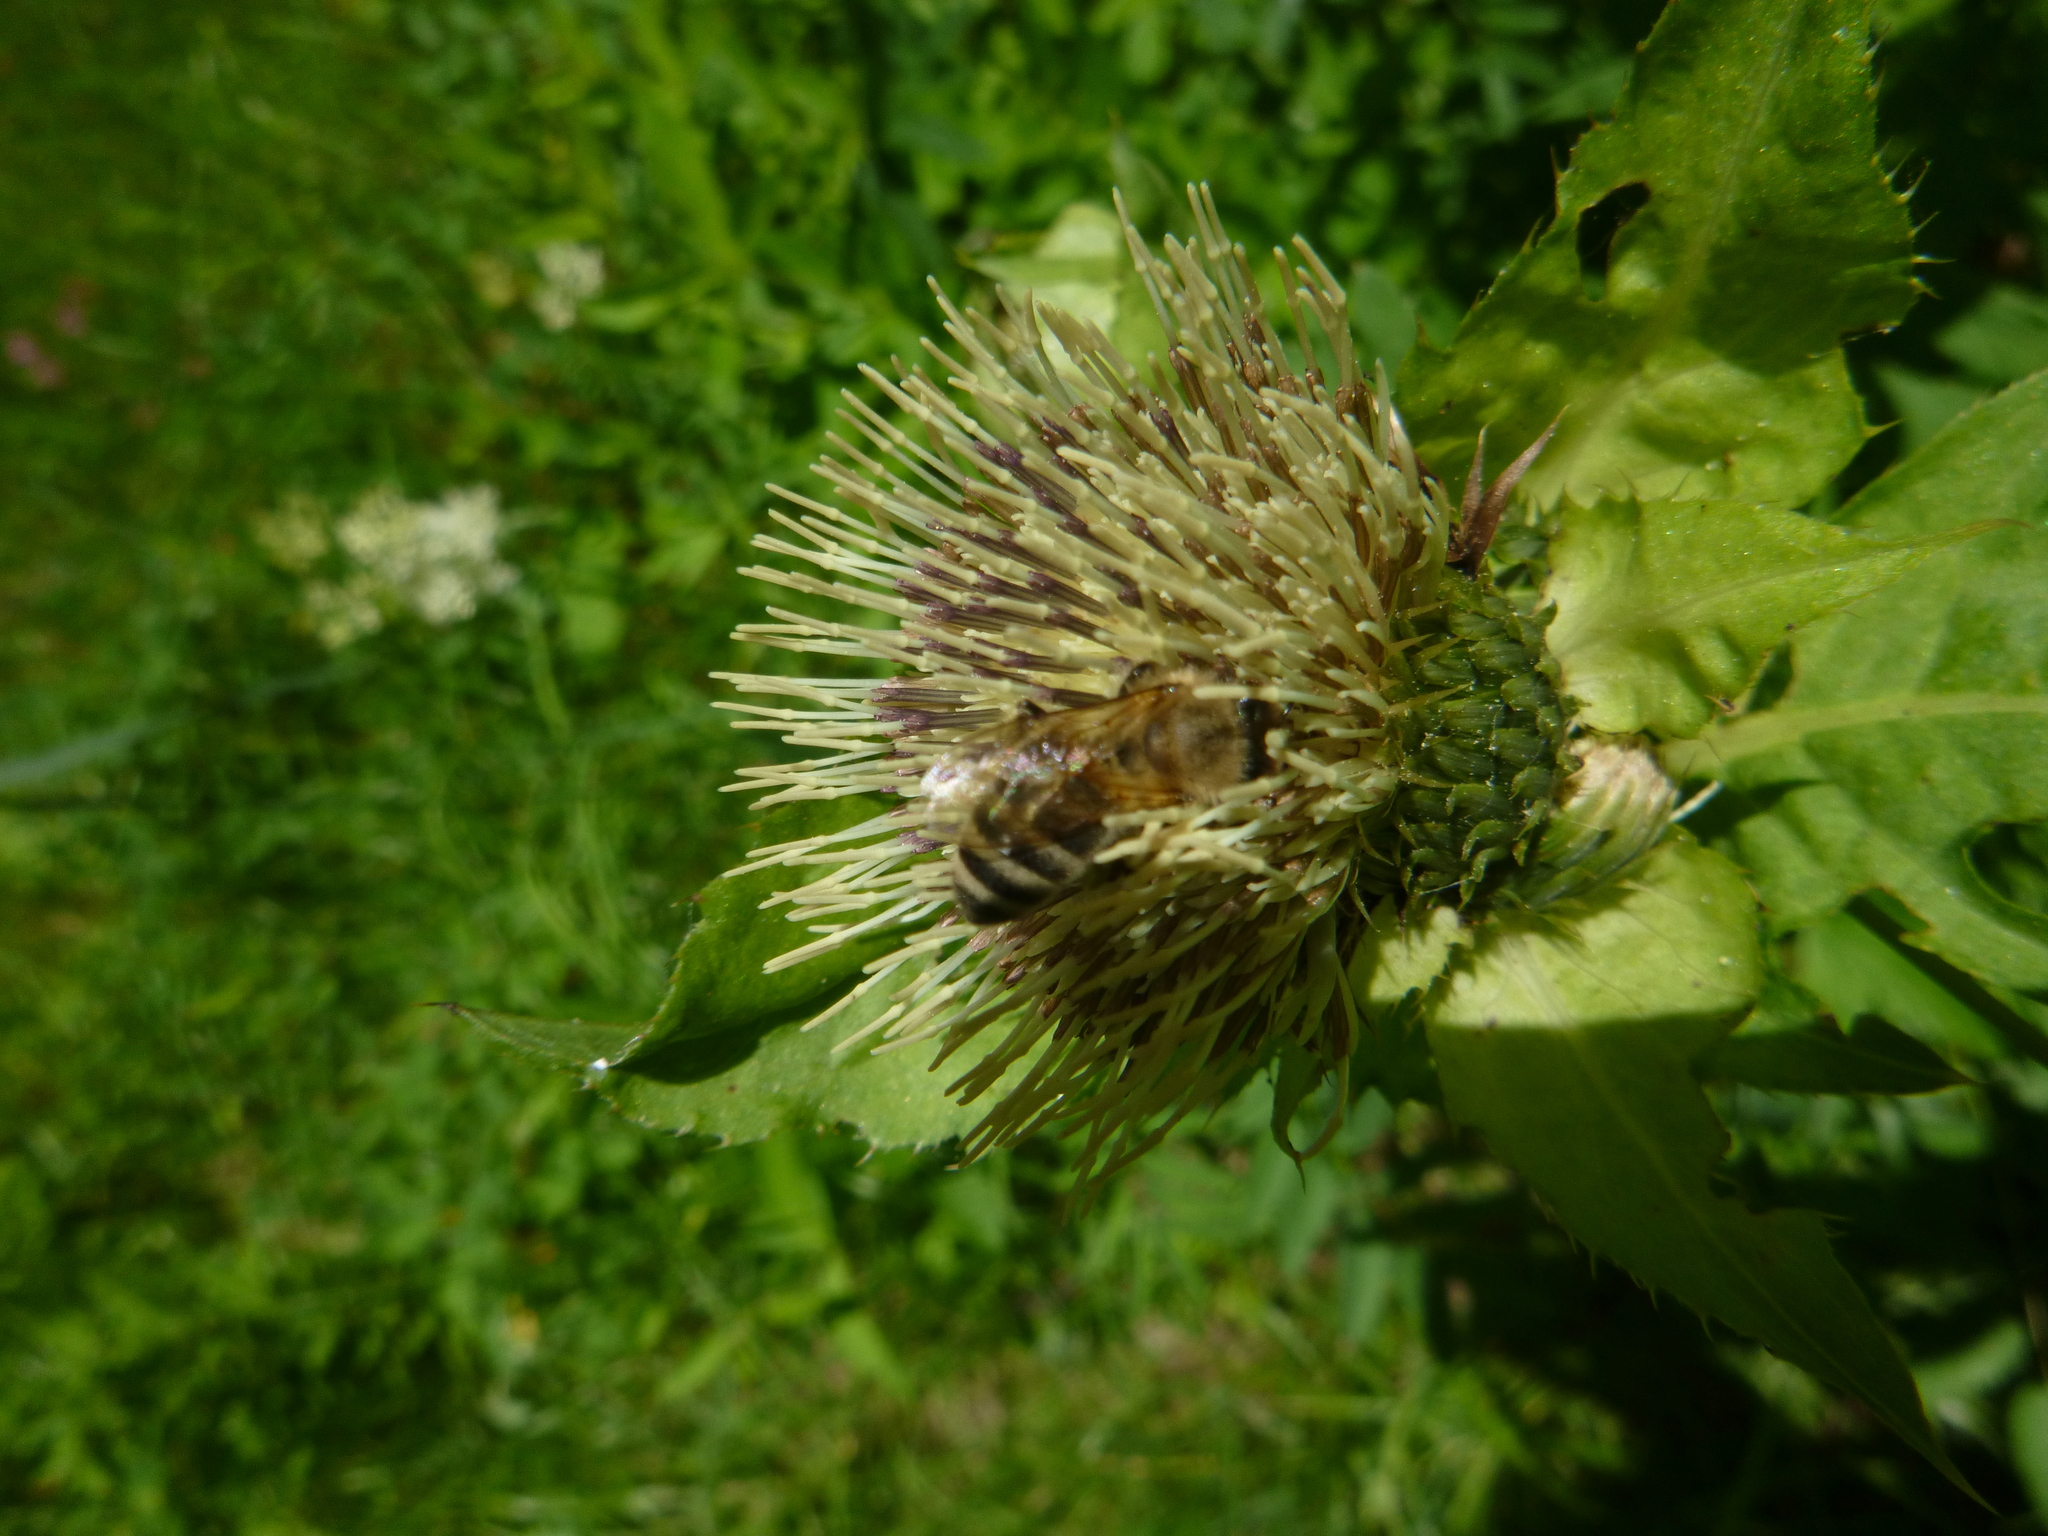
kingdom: Plantae
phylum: Tracheophyta
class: Magnoliopsida
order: Asterales
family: Asteraceae
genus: Cirsium
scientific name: Cirsium oleraceum
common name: Cabbage thistle
